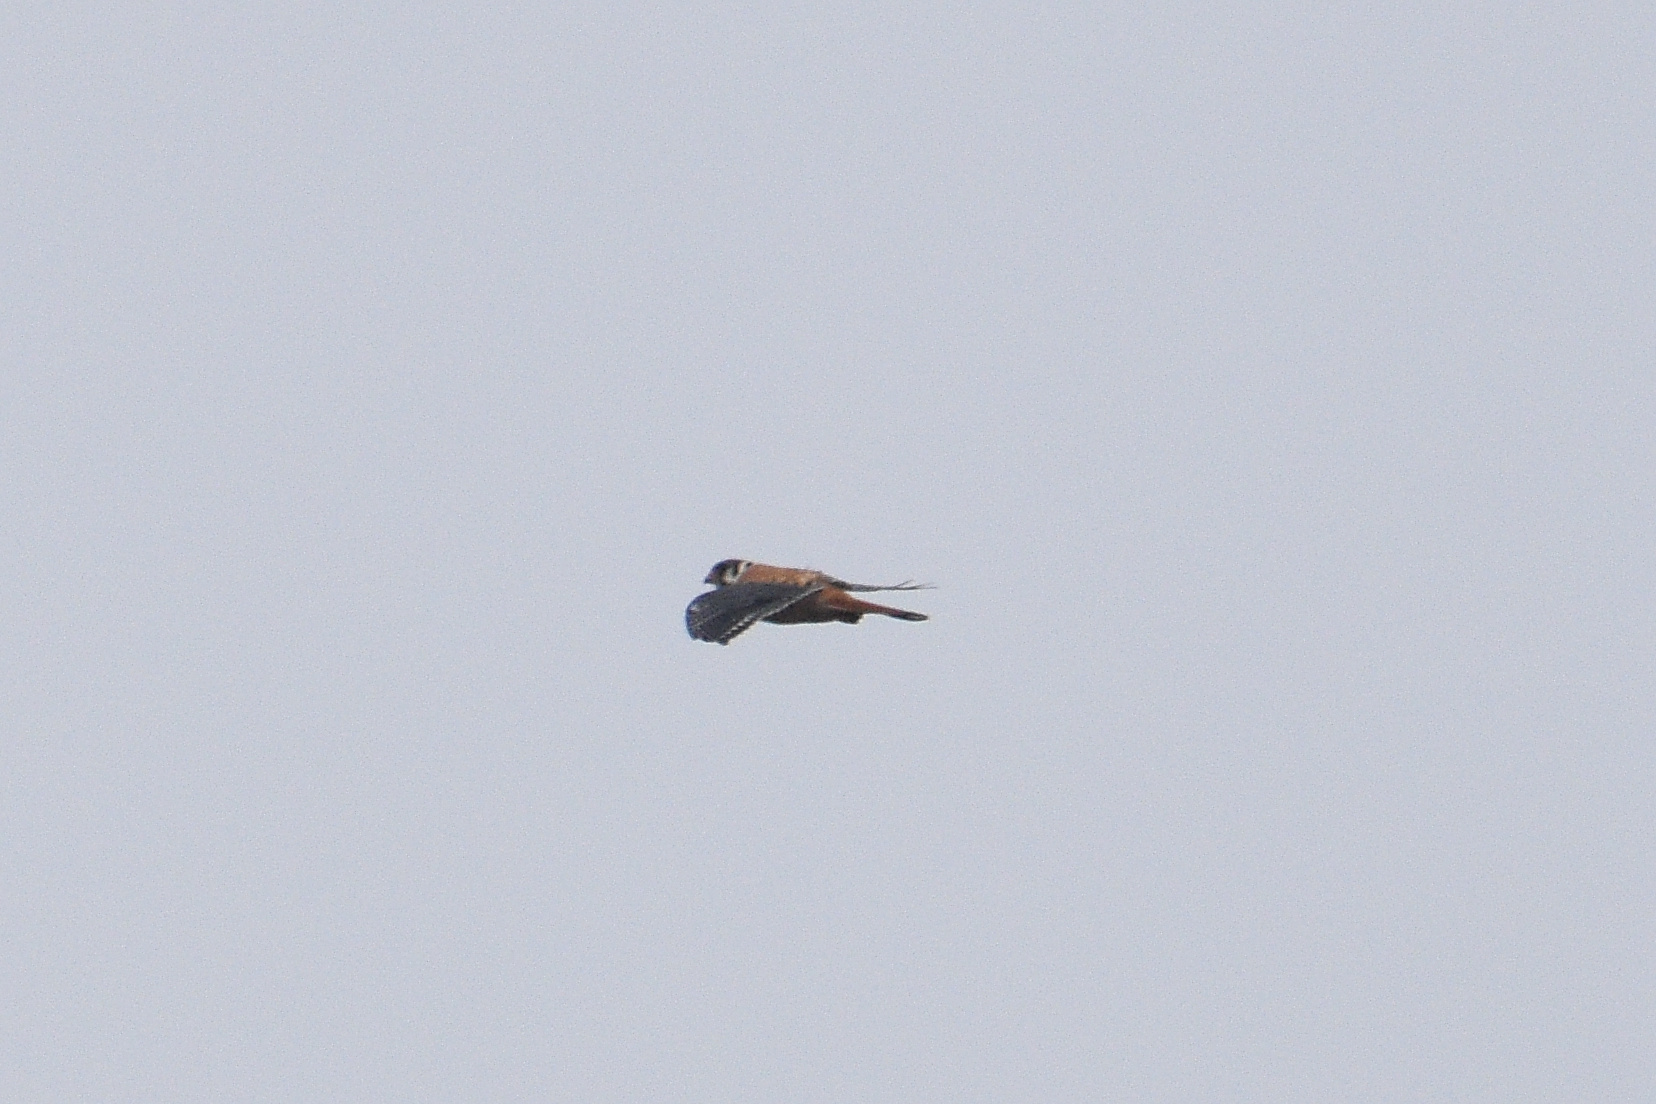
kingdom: Animalia
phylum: Chordata
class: Aves
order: Falconiformes
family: Falconidae
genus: Falco
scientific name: Falco sparverius
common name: American kestrel
